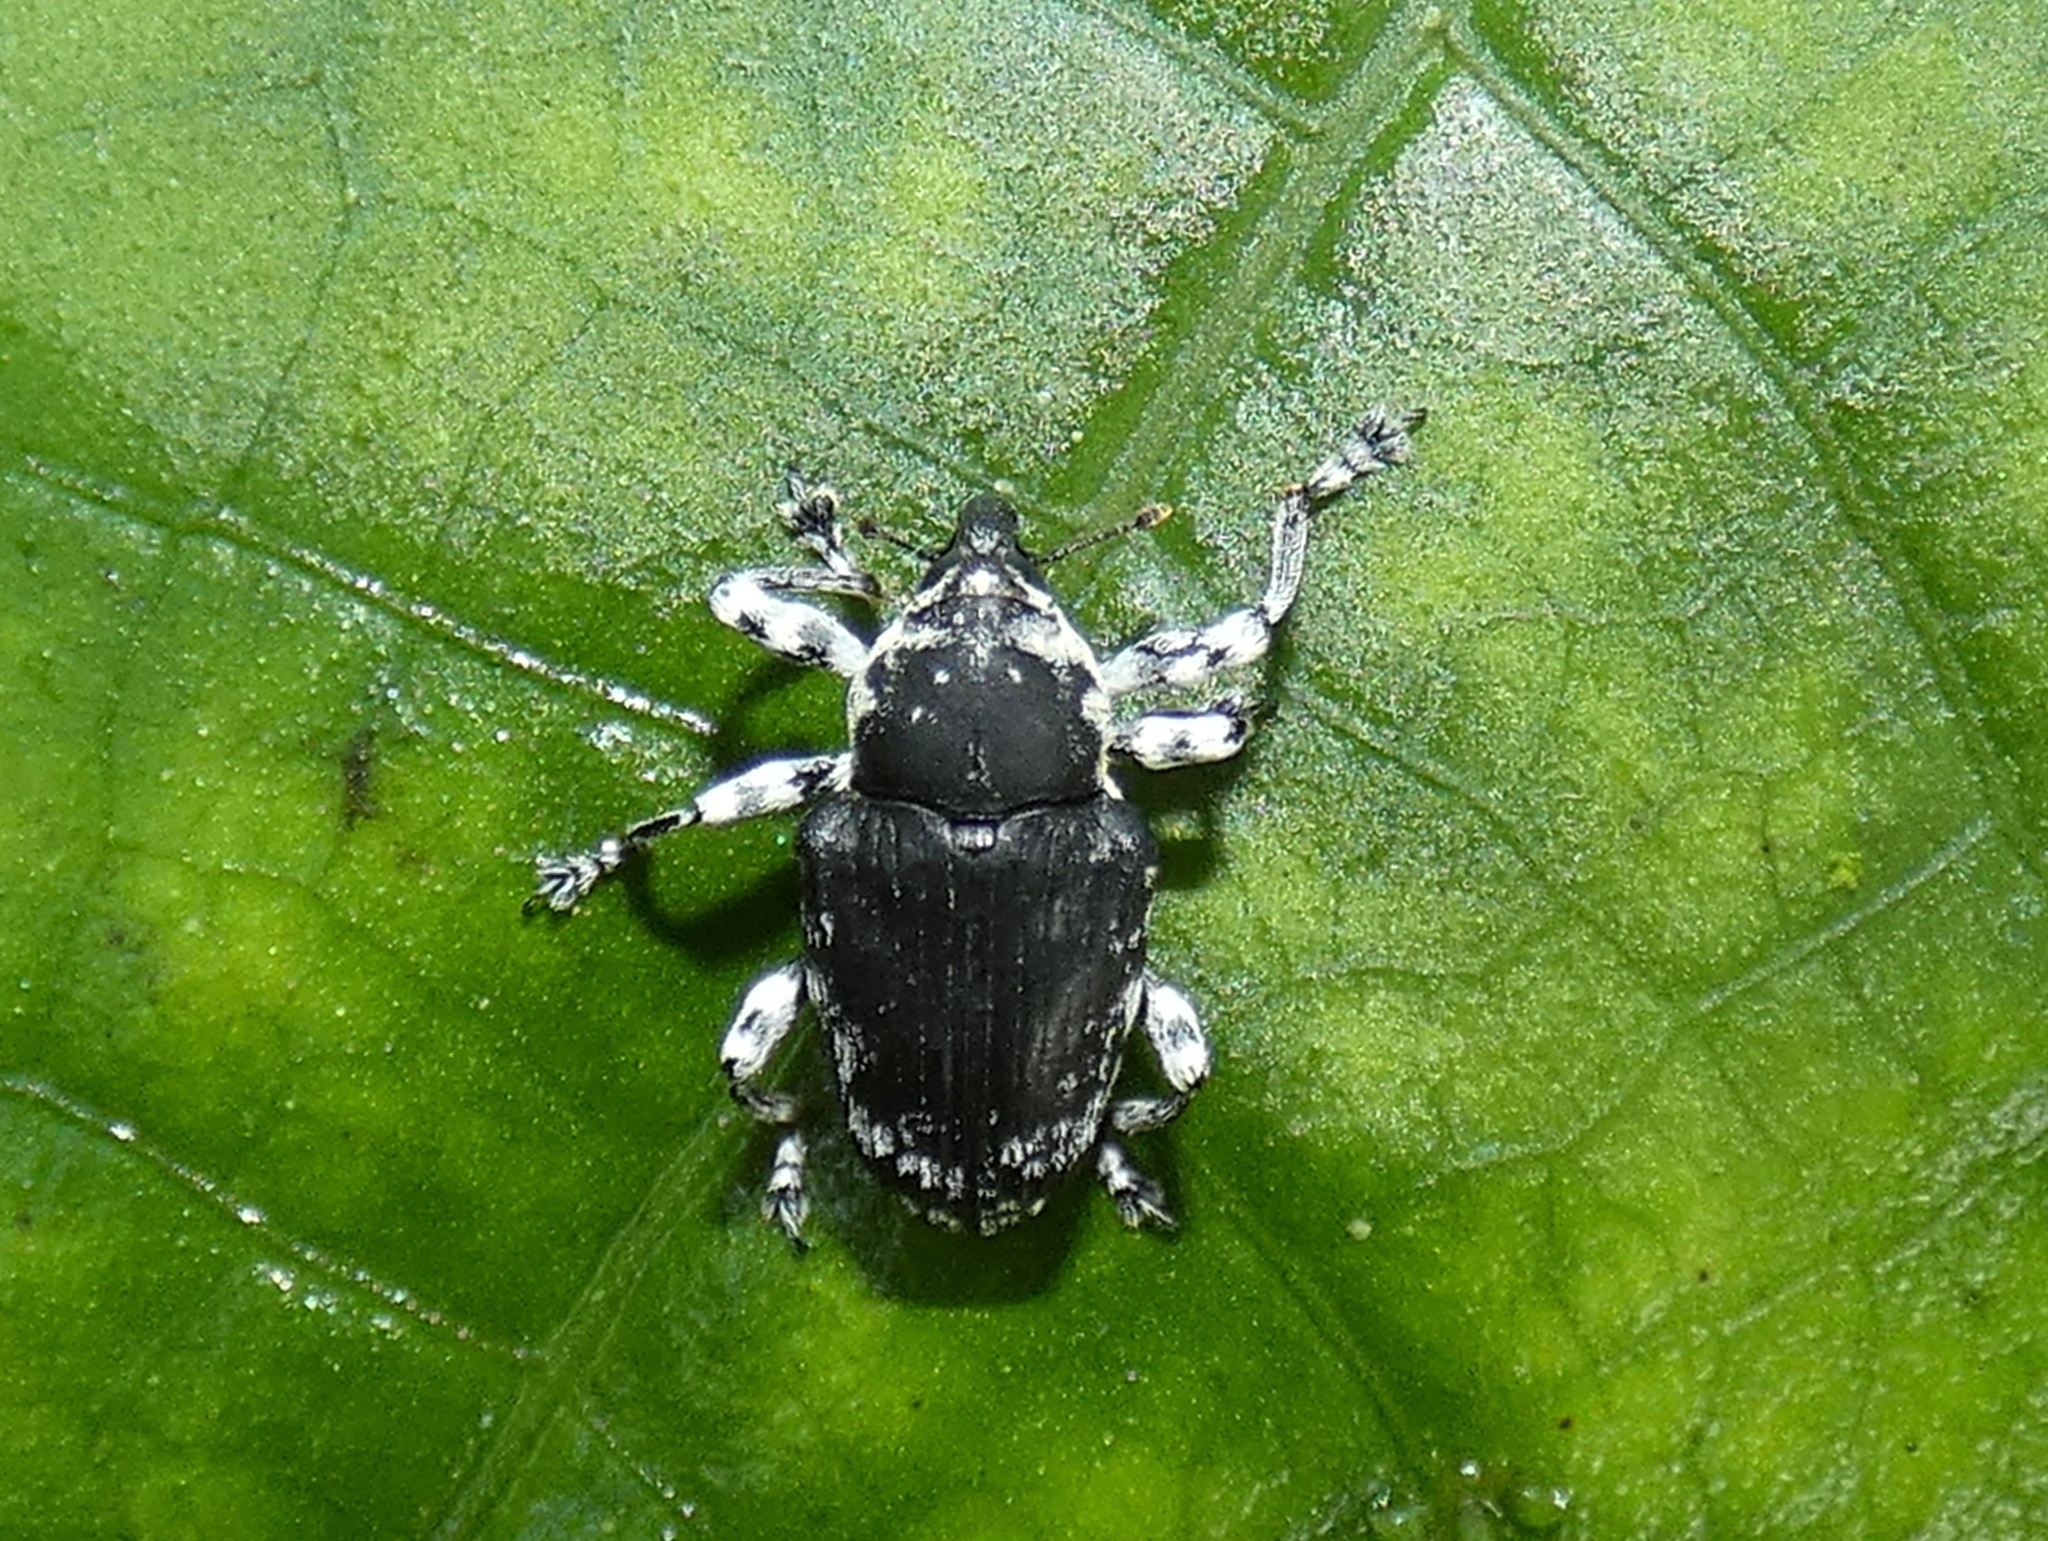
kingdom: Animalia
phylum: Arthropoda
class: Insecta
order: Coleoptera
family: Curculionidae
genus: Peridinetus
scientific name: Peridinetus irroratus
